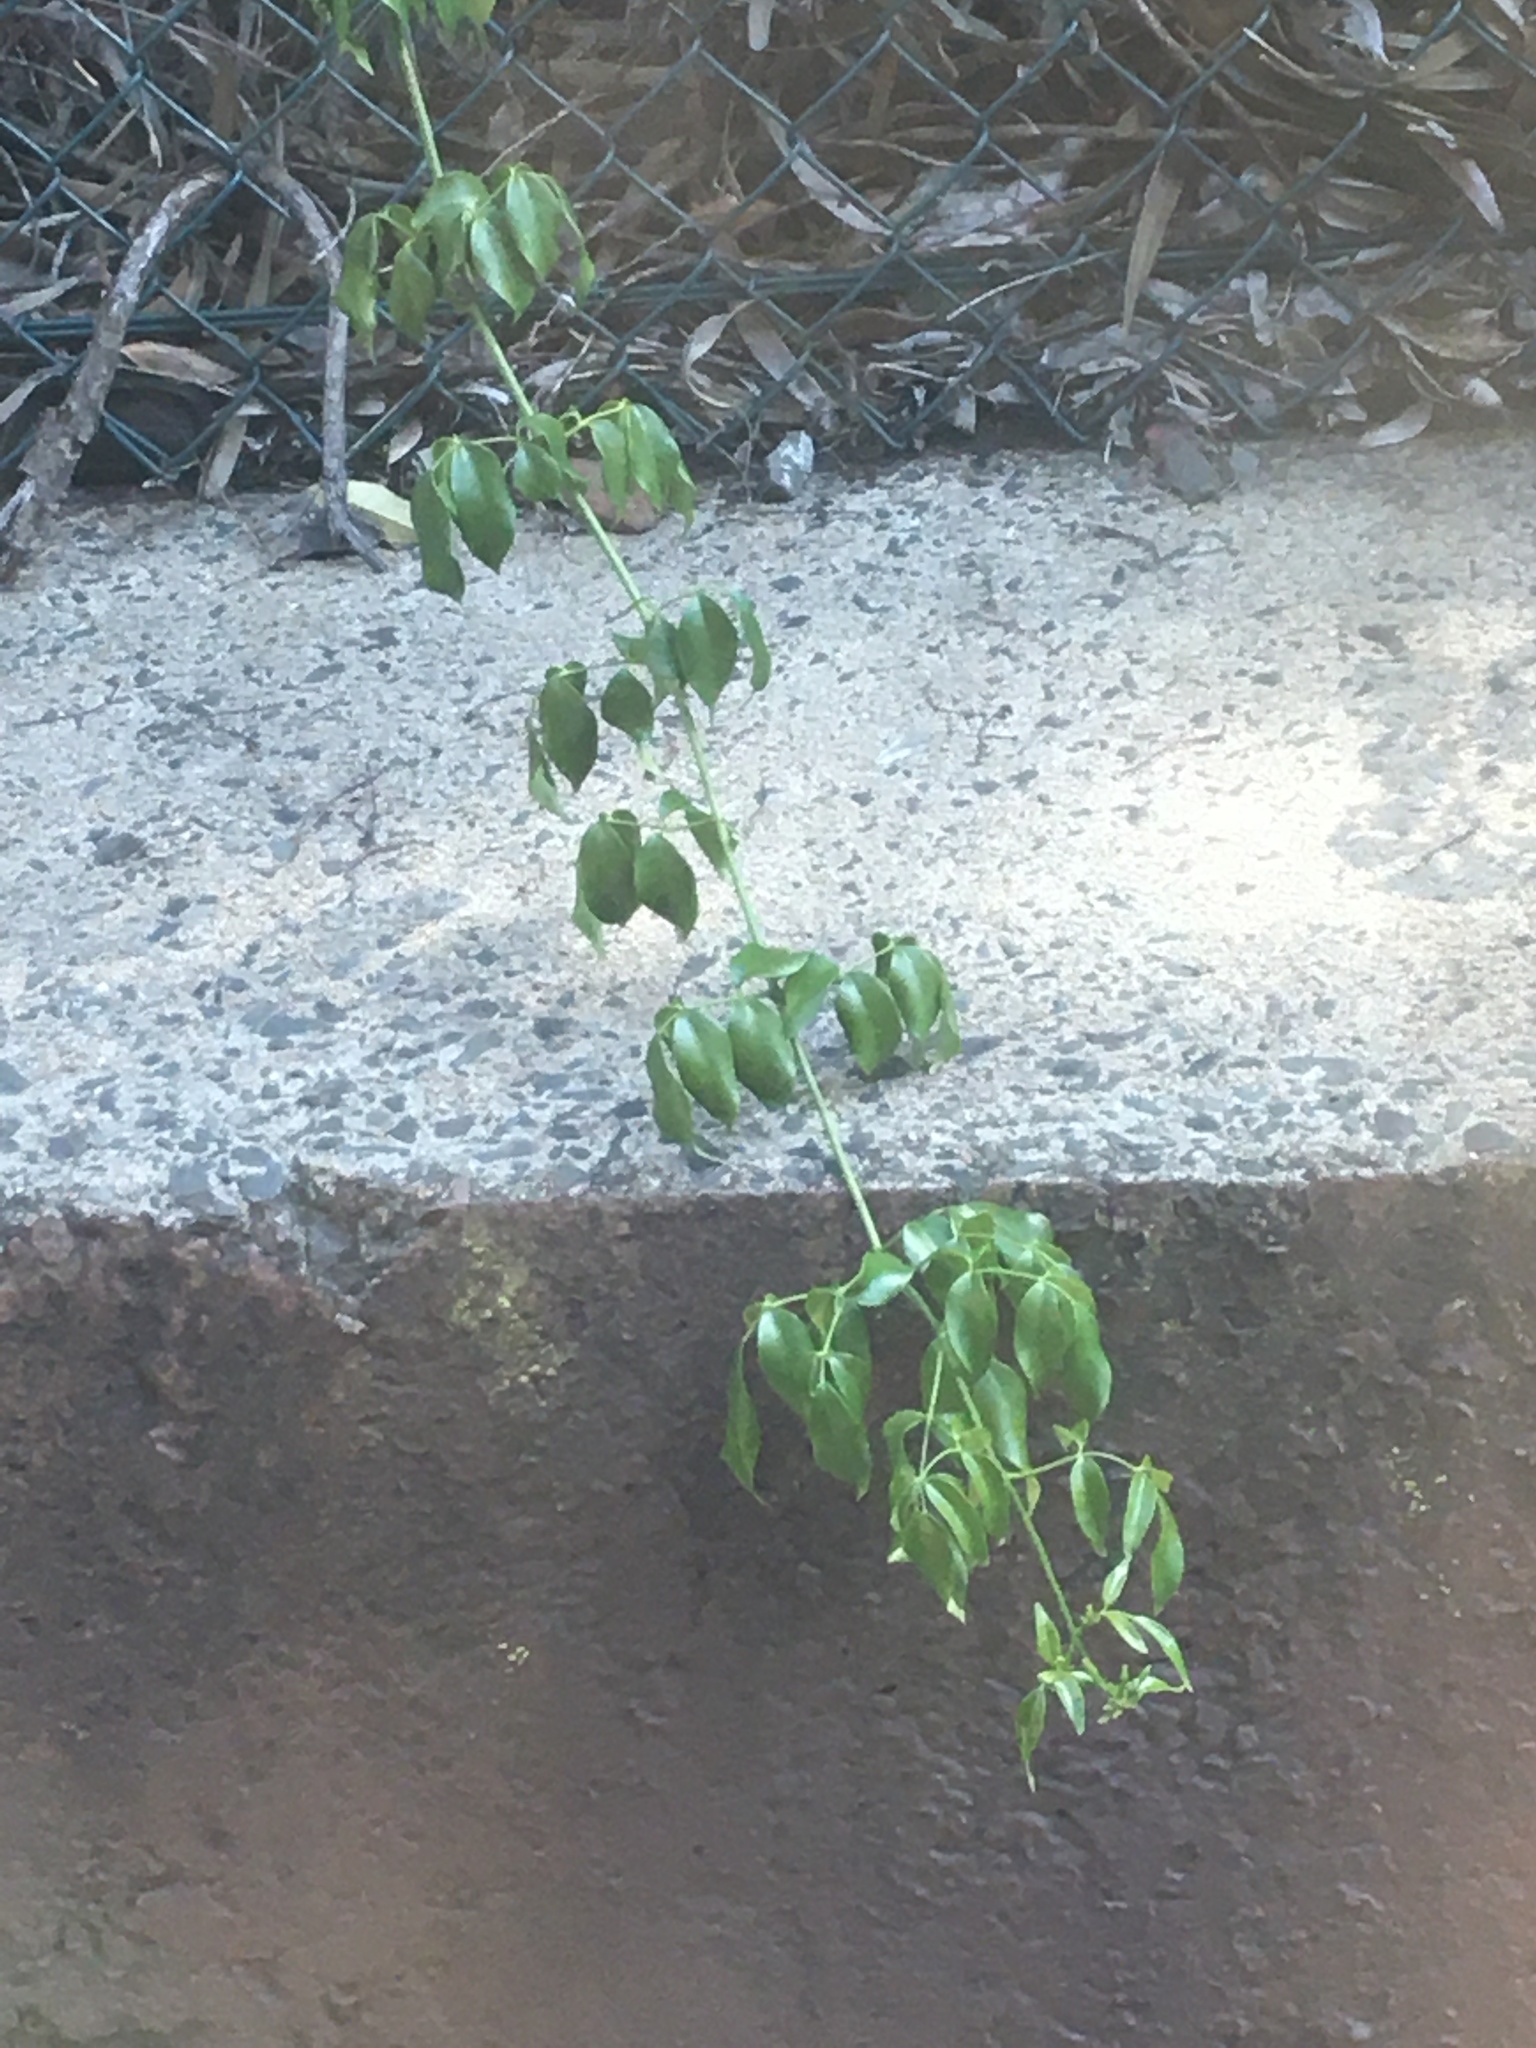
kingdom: Plantae
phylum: Tracheophyta
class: Magnoliopsida
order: Lamiales
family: Bignoniaceae
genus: Pandorea
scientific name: Pandorea jasminoides
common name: Bowerplant
